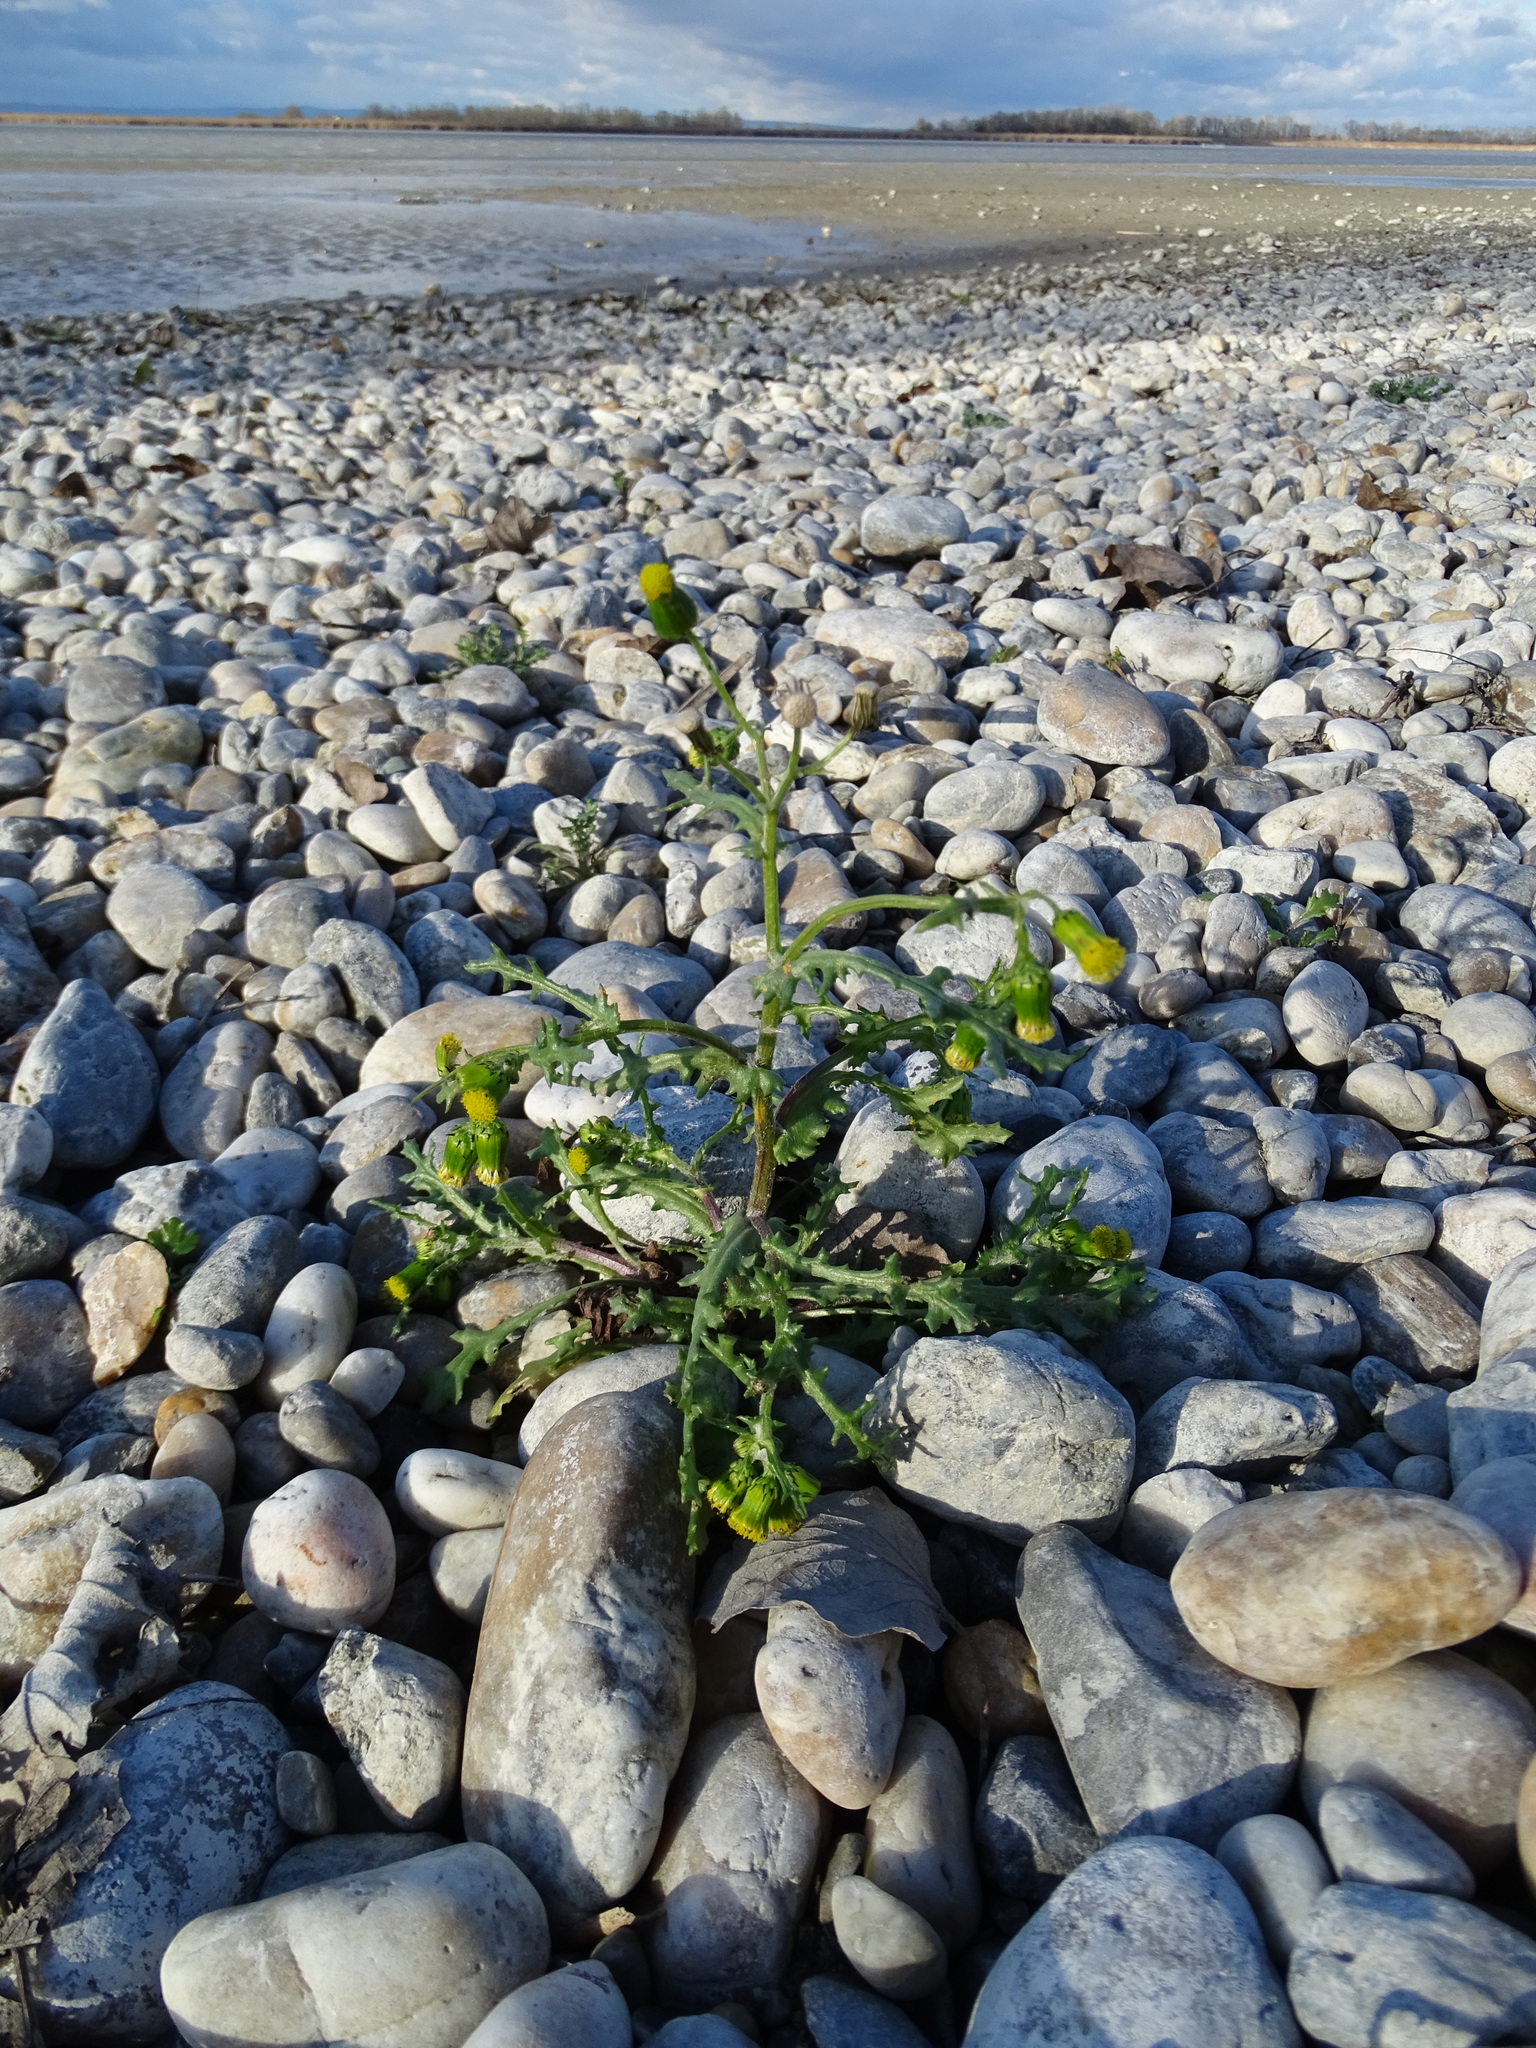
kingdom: Plantae
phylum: Tracheophyta
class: Magnoliopsida
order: Asterales
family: Asteraceae
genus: Senecio
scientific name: Senecio vulgaris
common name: Old-man-in-the-spring
